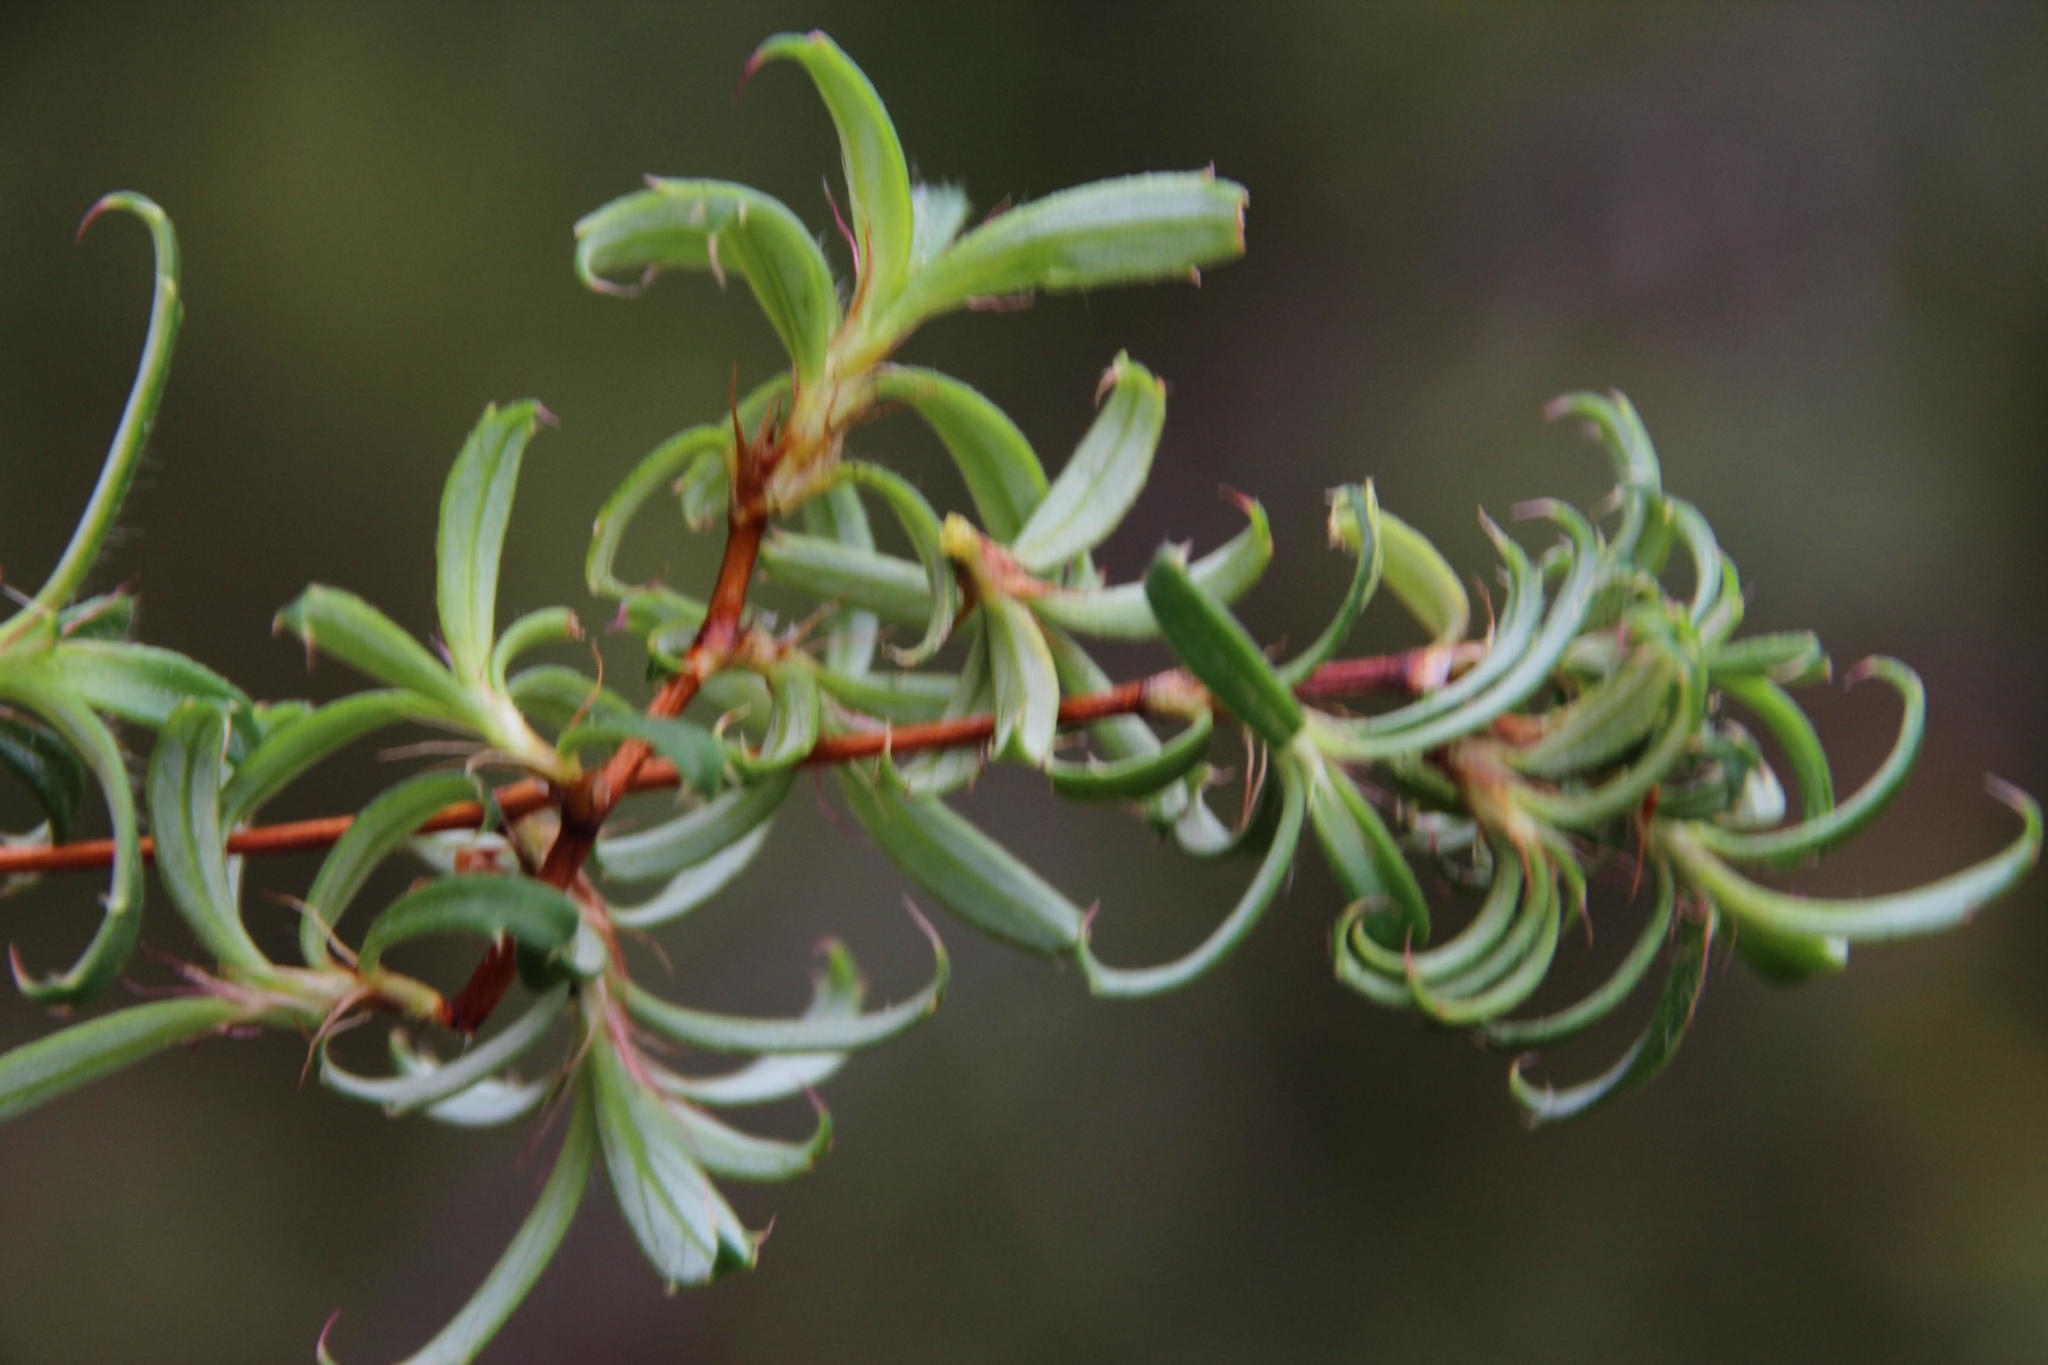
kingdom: Plantae
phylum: Tracheophyta
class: Magnoliopsida
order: Rosales
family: Rosaceae
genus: Cliffortia
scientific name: Cliffortia ferruginea
